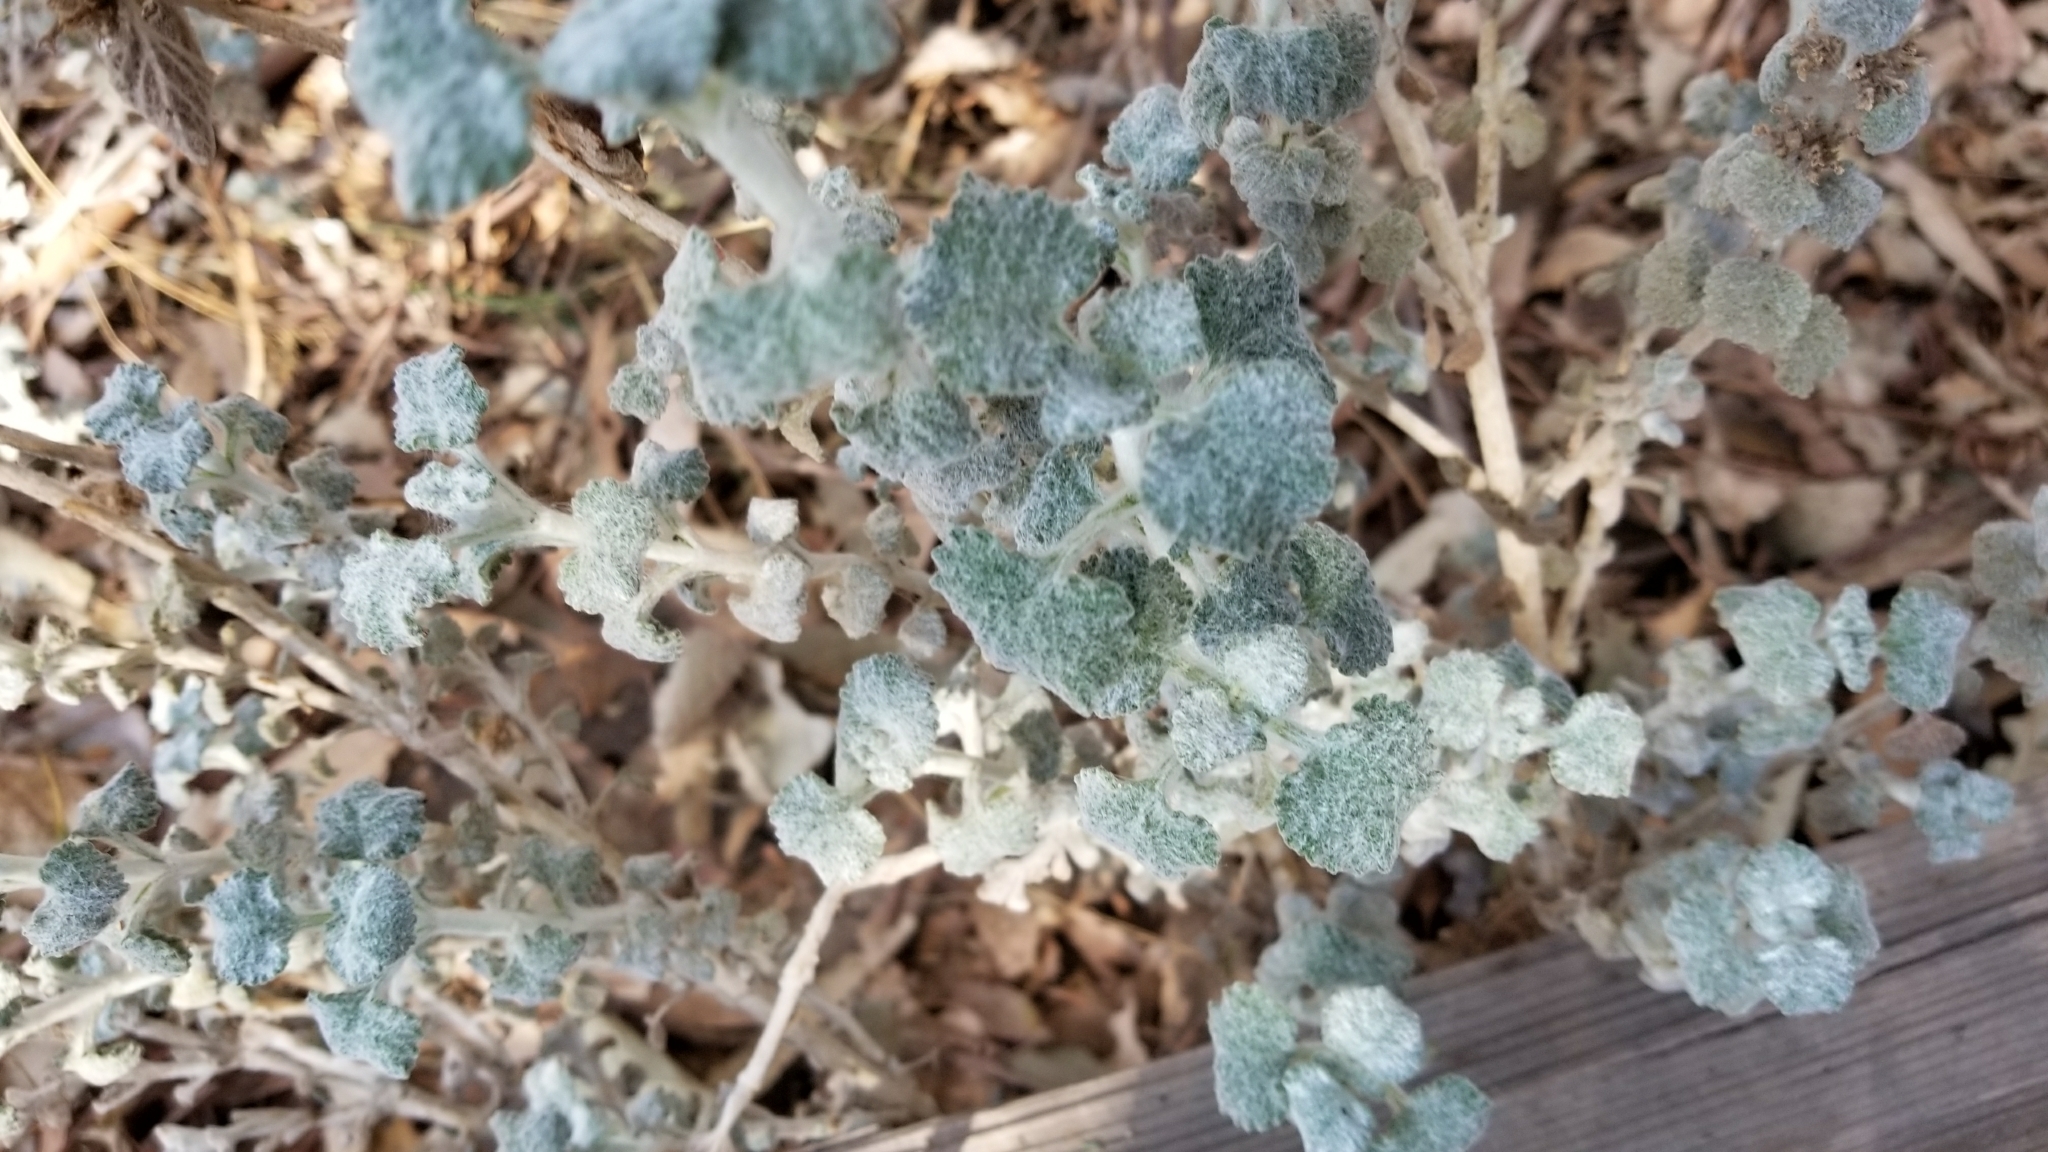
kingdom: Plantae
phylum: Tracheophyta
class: Magnoliopsida
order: Lamiales
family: Lamiaceae
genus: Marrubium
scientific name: Marrubium vulgare
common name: Horehound
